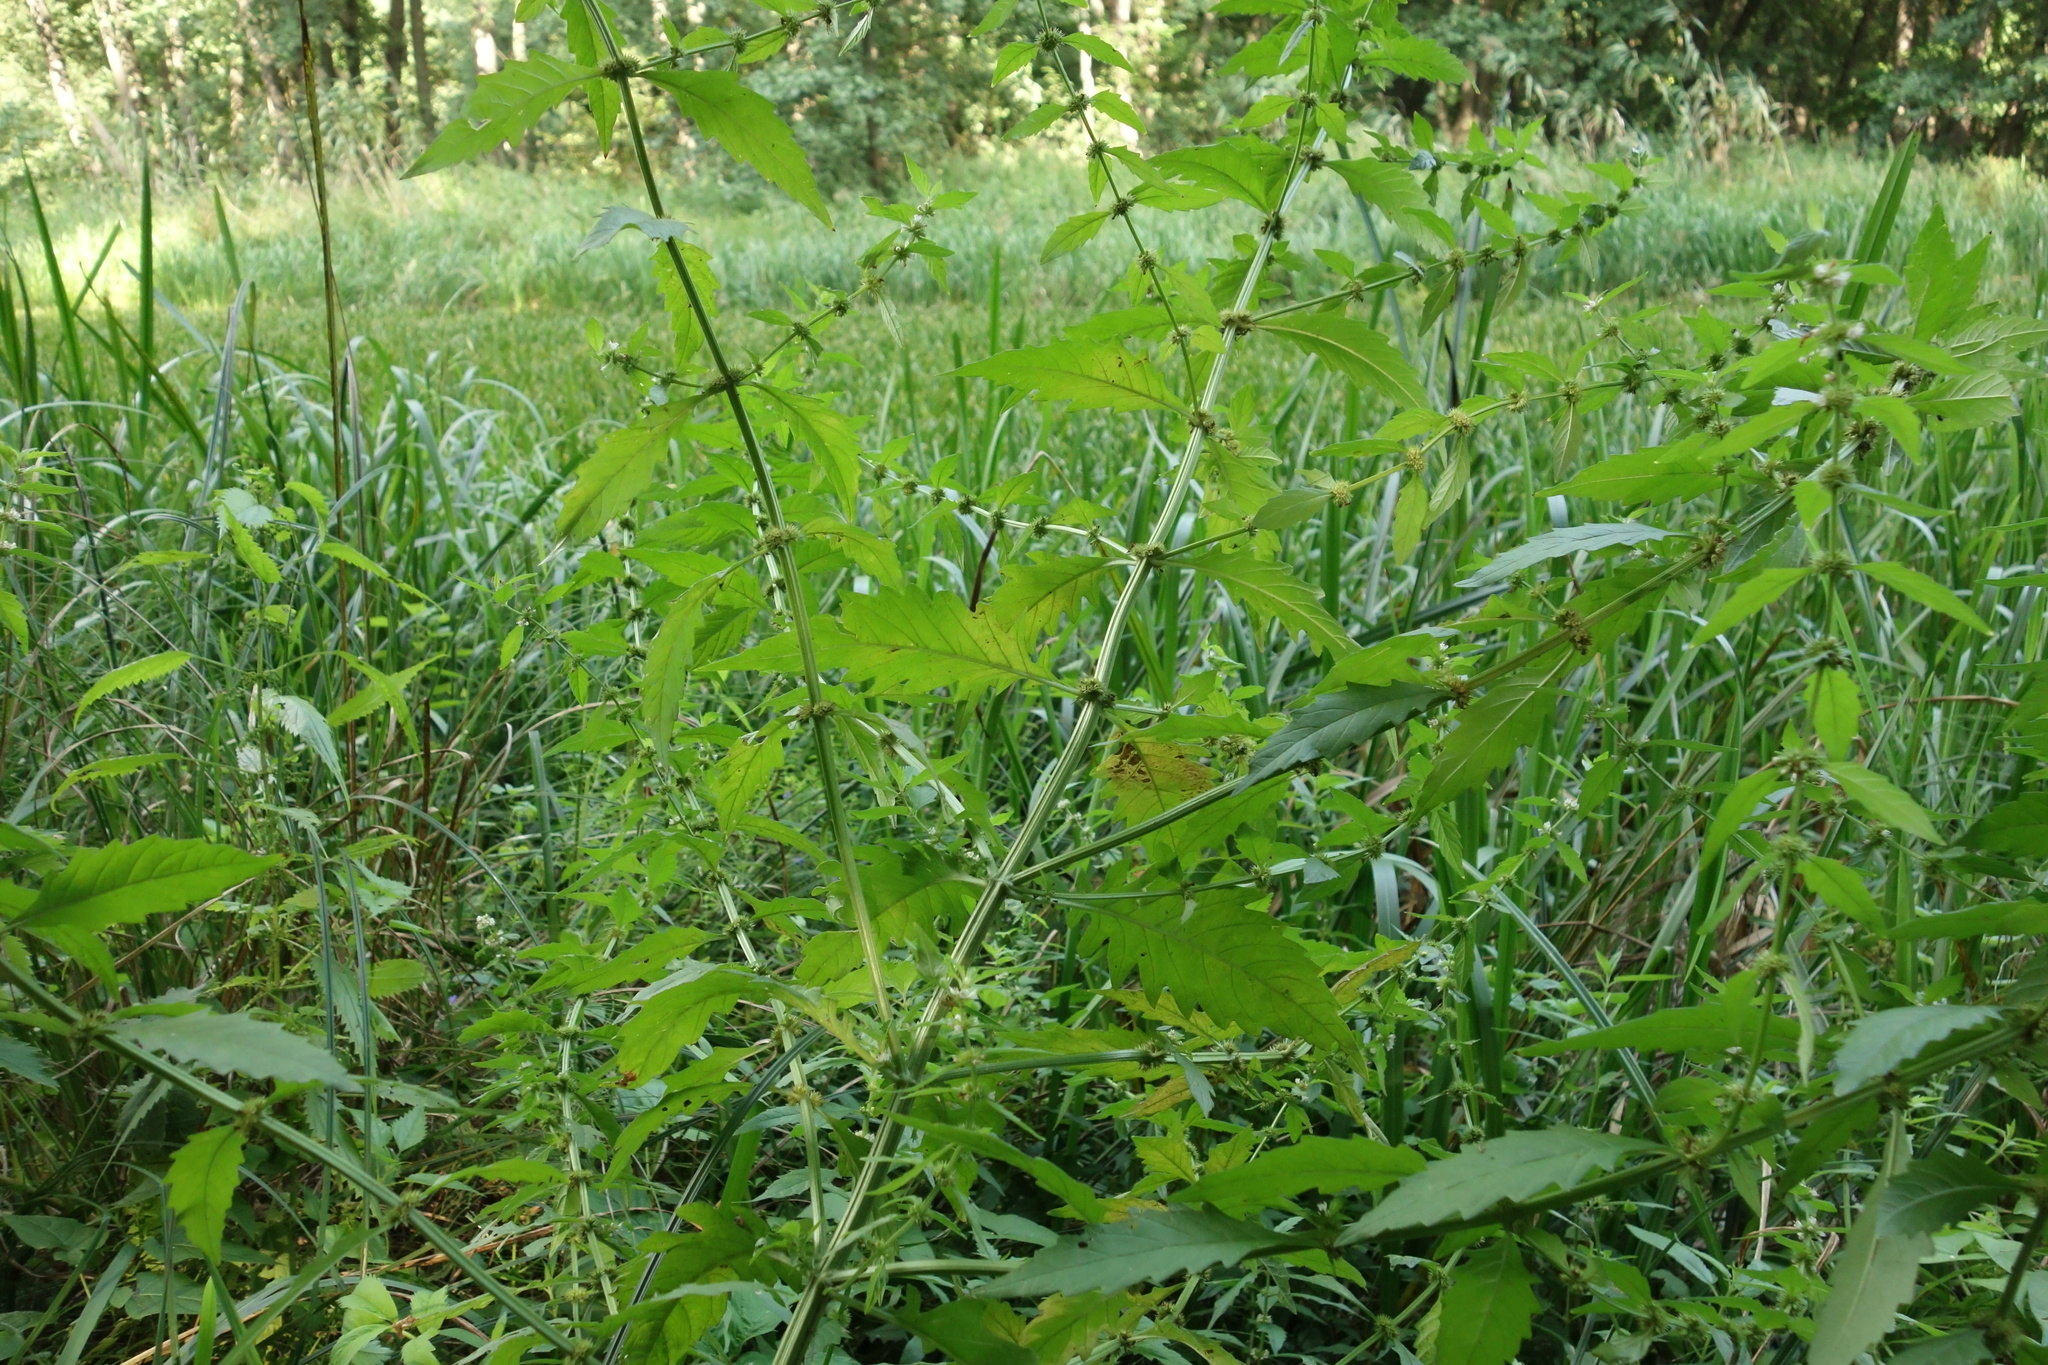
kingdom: Plantae
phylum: Tracheophyta
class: Magnoliopsida
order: Lamiales
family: Lamiaceae
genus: Lycopus
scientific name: Lycopus europaeus
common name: European bugleweed
